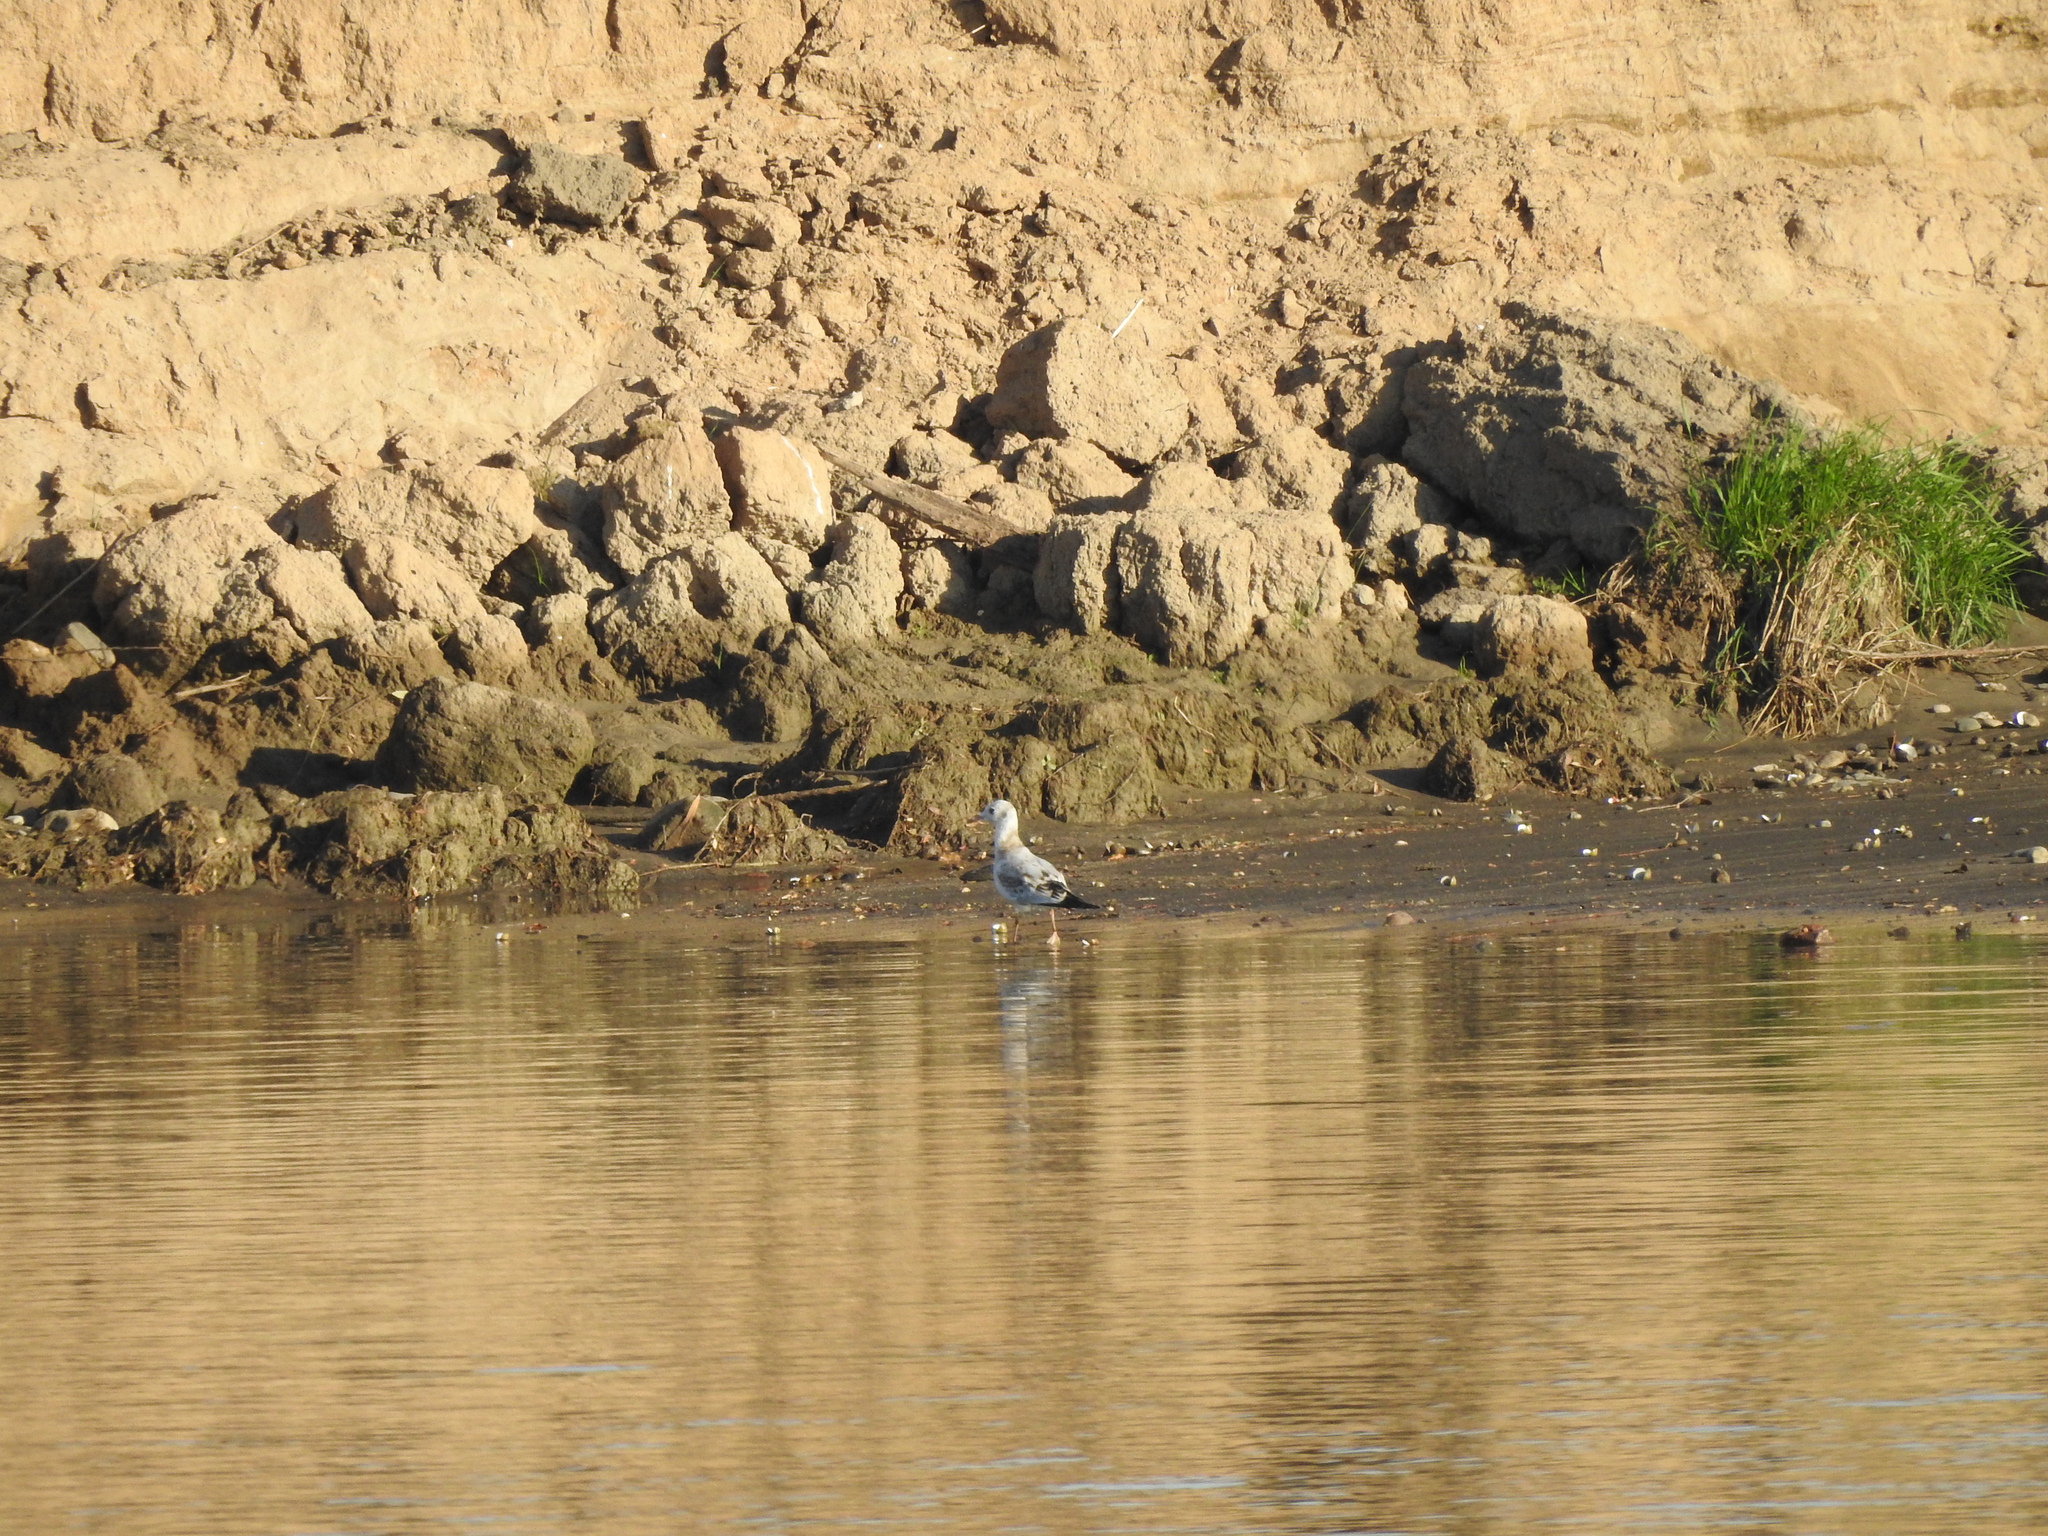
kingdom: Animalia
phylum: Chordata
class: Aves
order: Charadriiformes
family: Laridae
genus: Chroicocephalus
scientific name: Chroicocephalus ridibundus
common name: Black-headed gull
